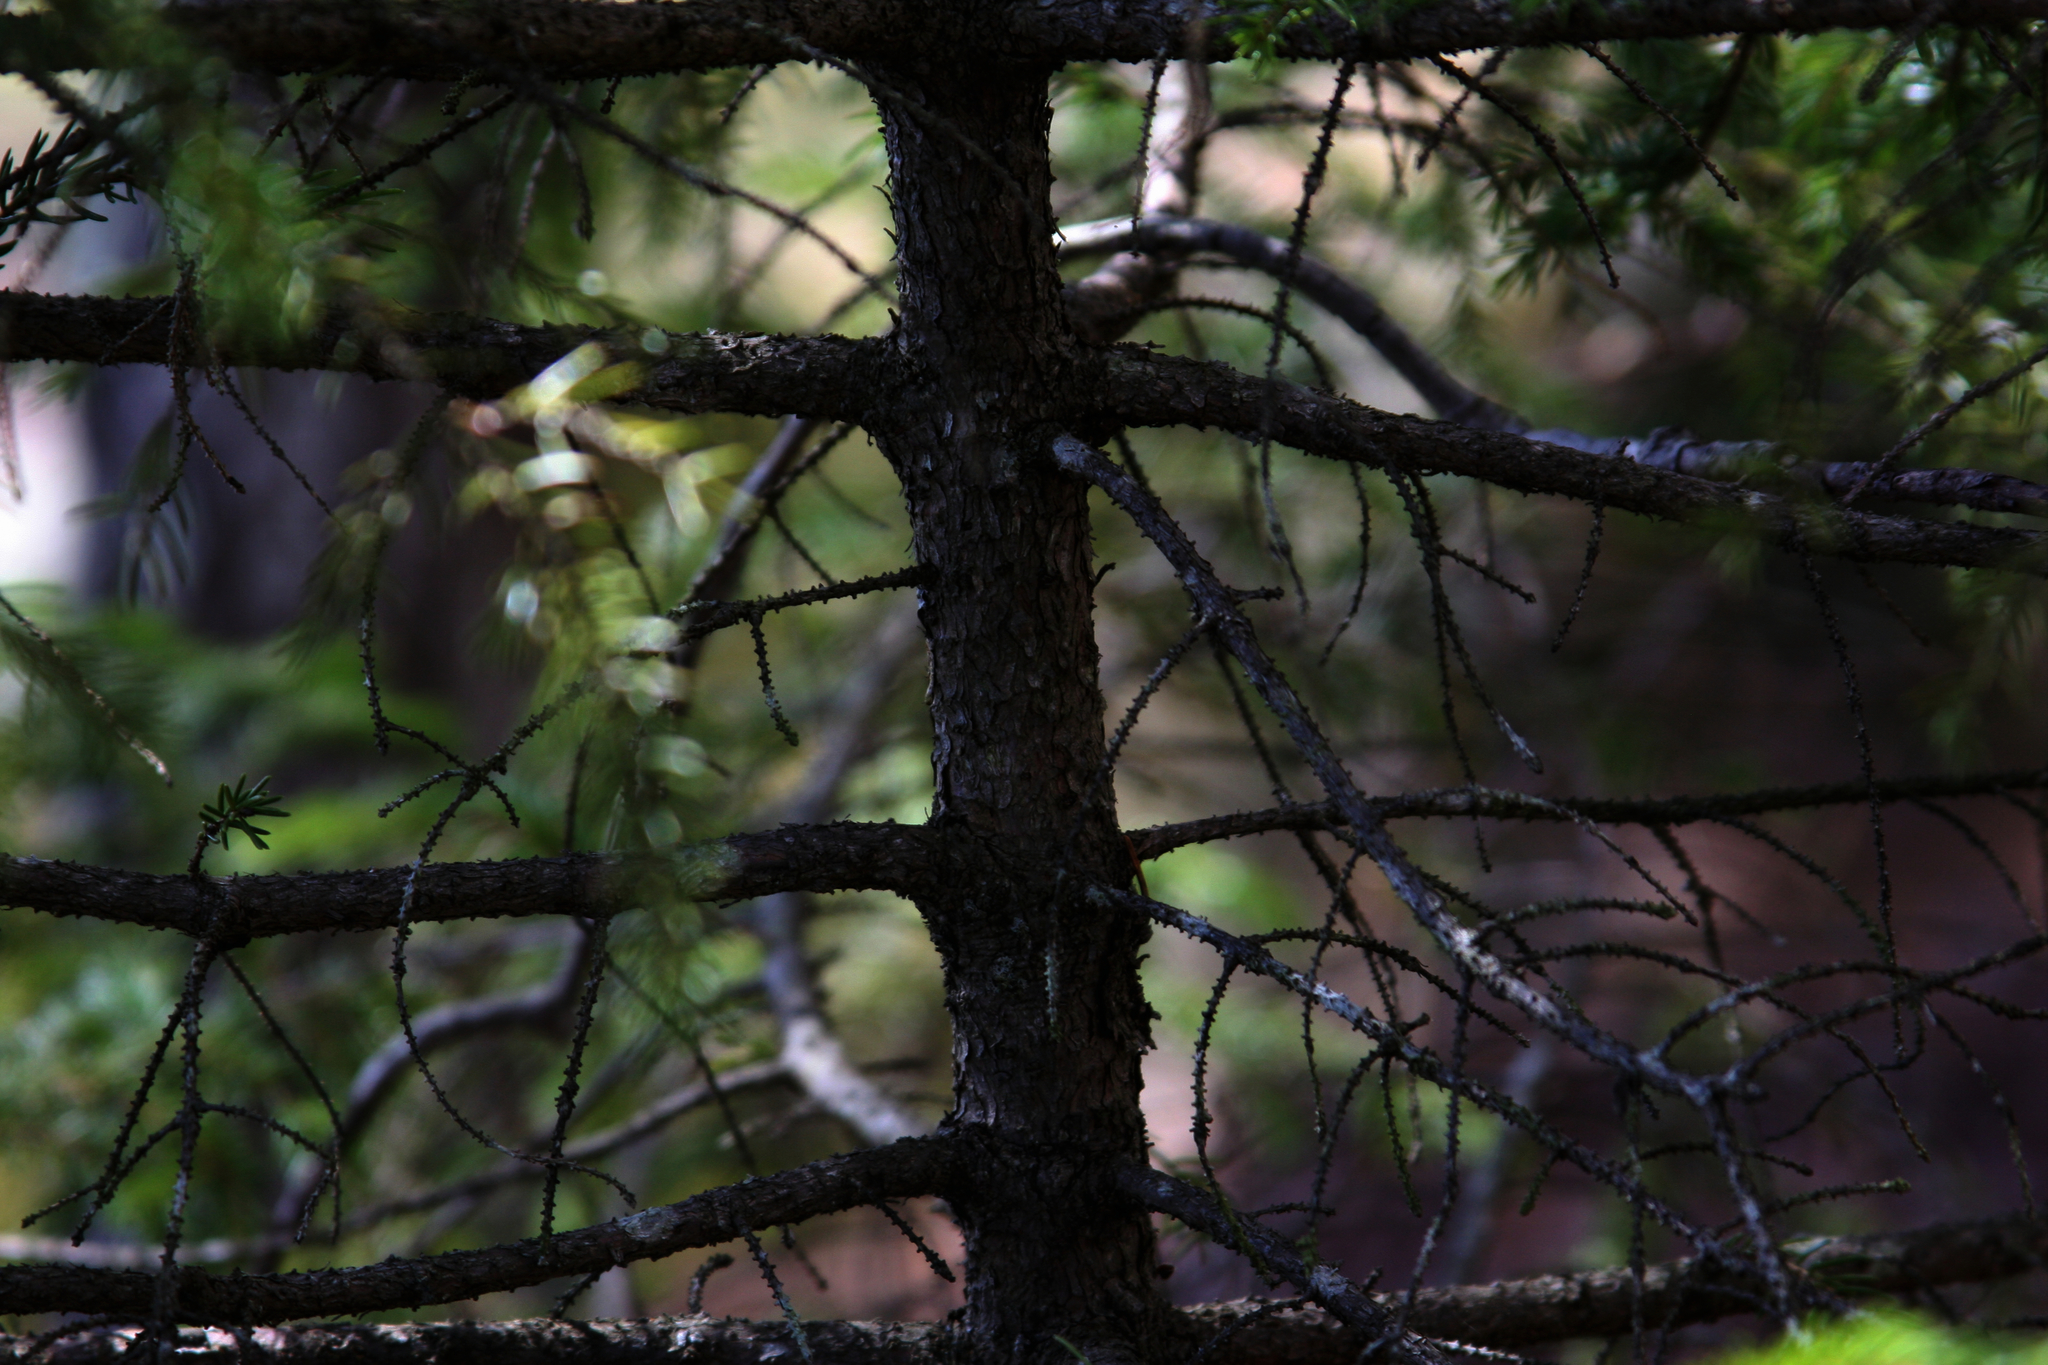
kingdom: Plantae
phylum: Tracheophyta
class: Pinopsida
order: Pinales
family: Pinaceae
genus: Picea
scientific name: Picea rubens
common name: Red spruce
